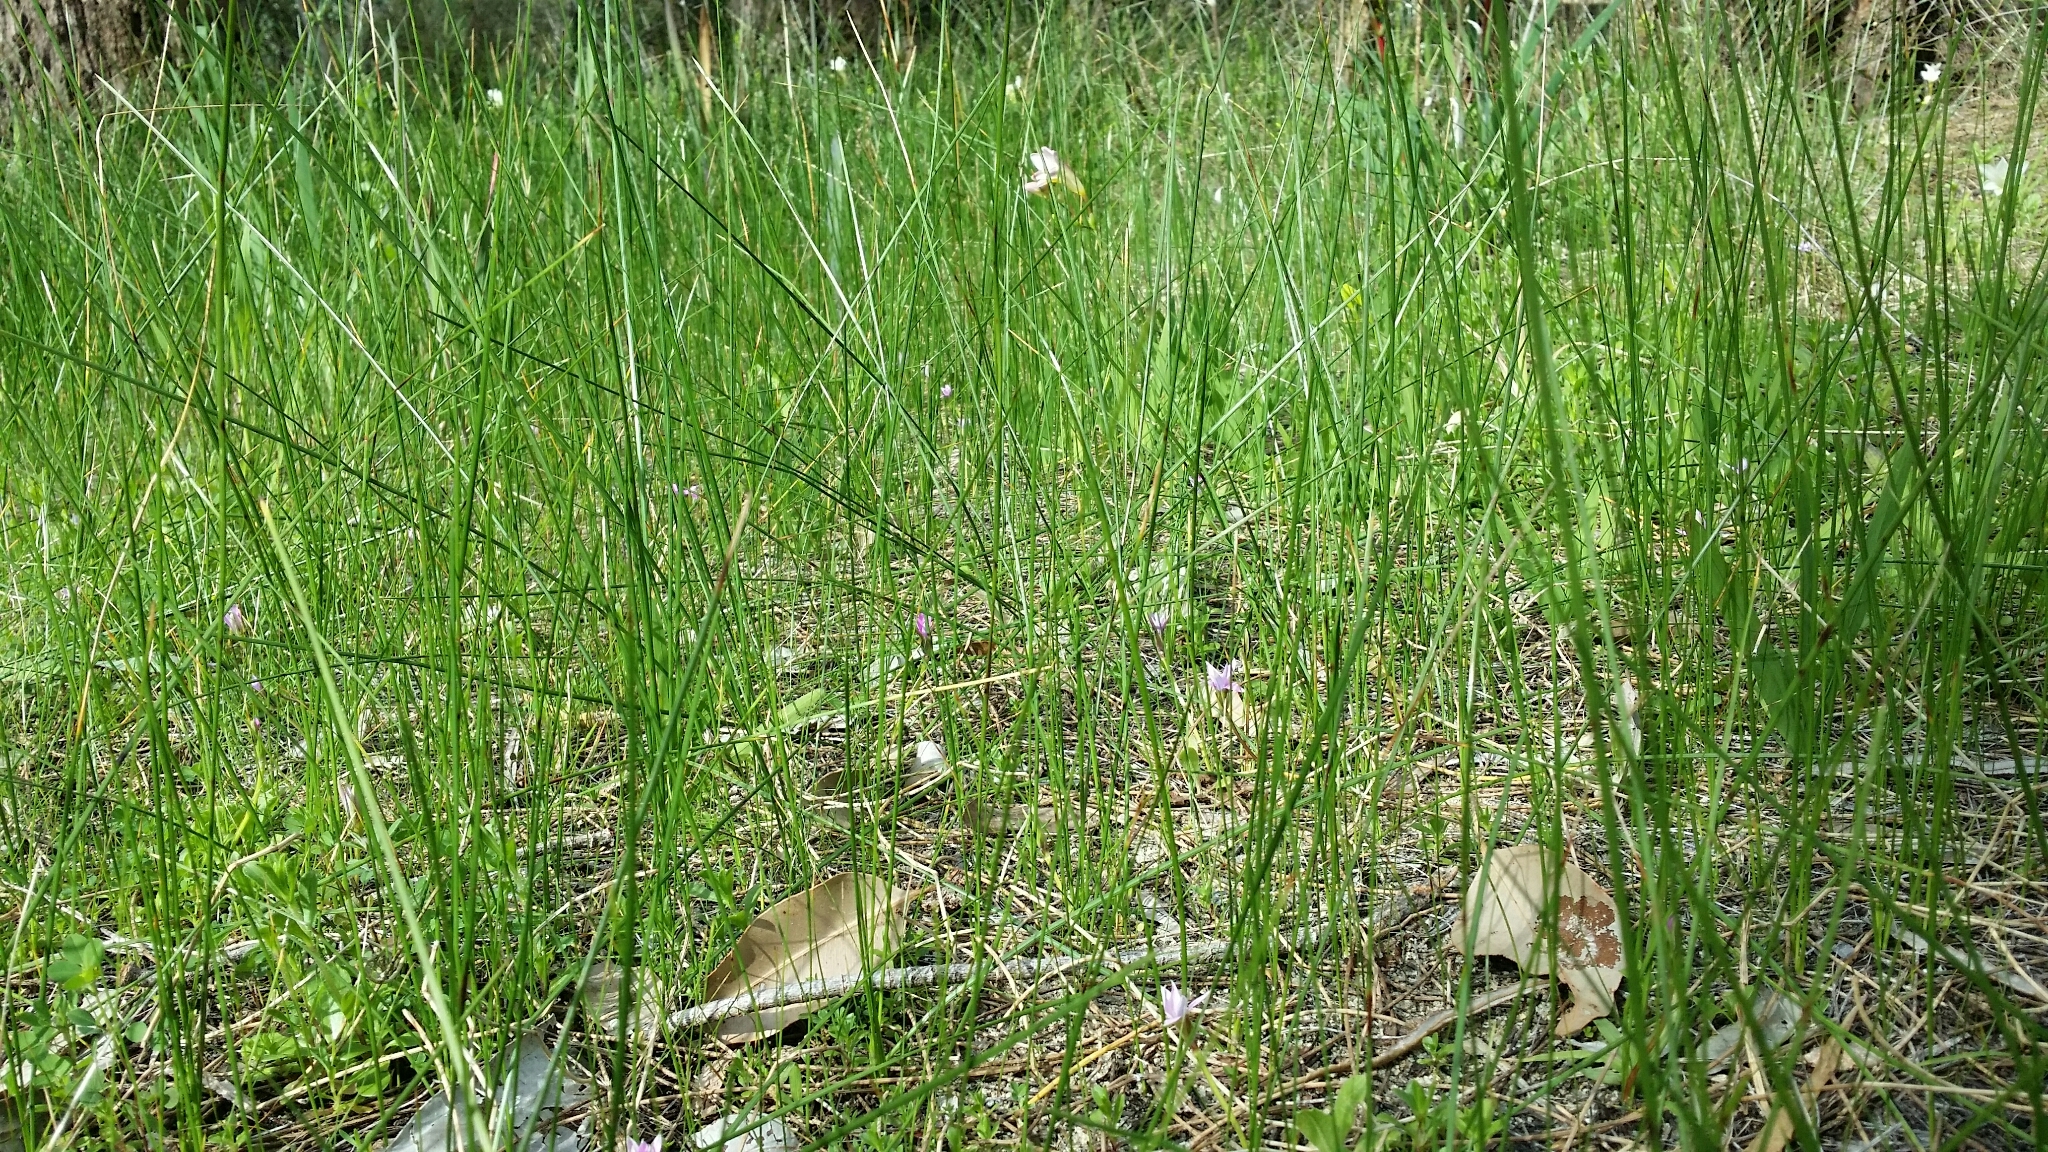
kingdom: Plantae
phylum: Tracheophyta
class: Liliopsida
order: Asparagales
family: Iridaceae
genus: Romulea
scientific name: Romulea rosea
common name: Oniongrass
